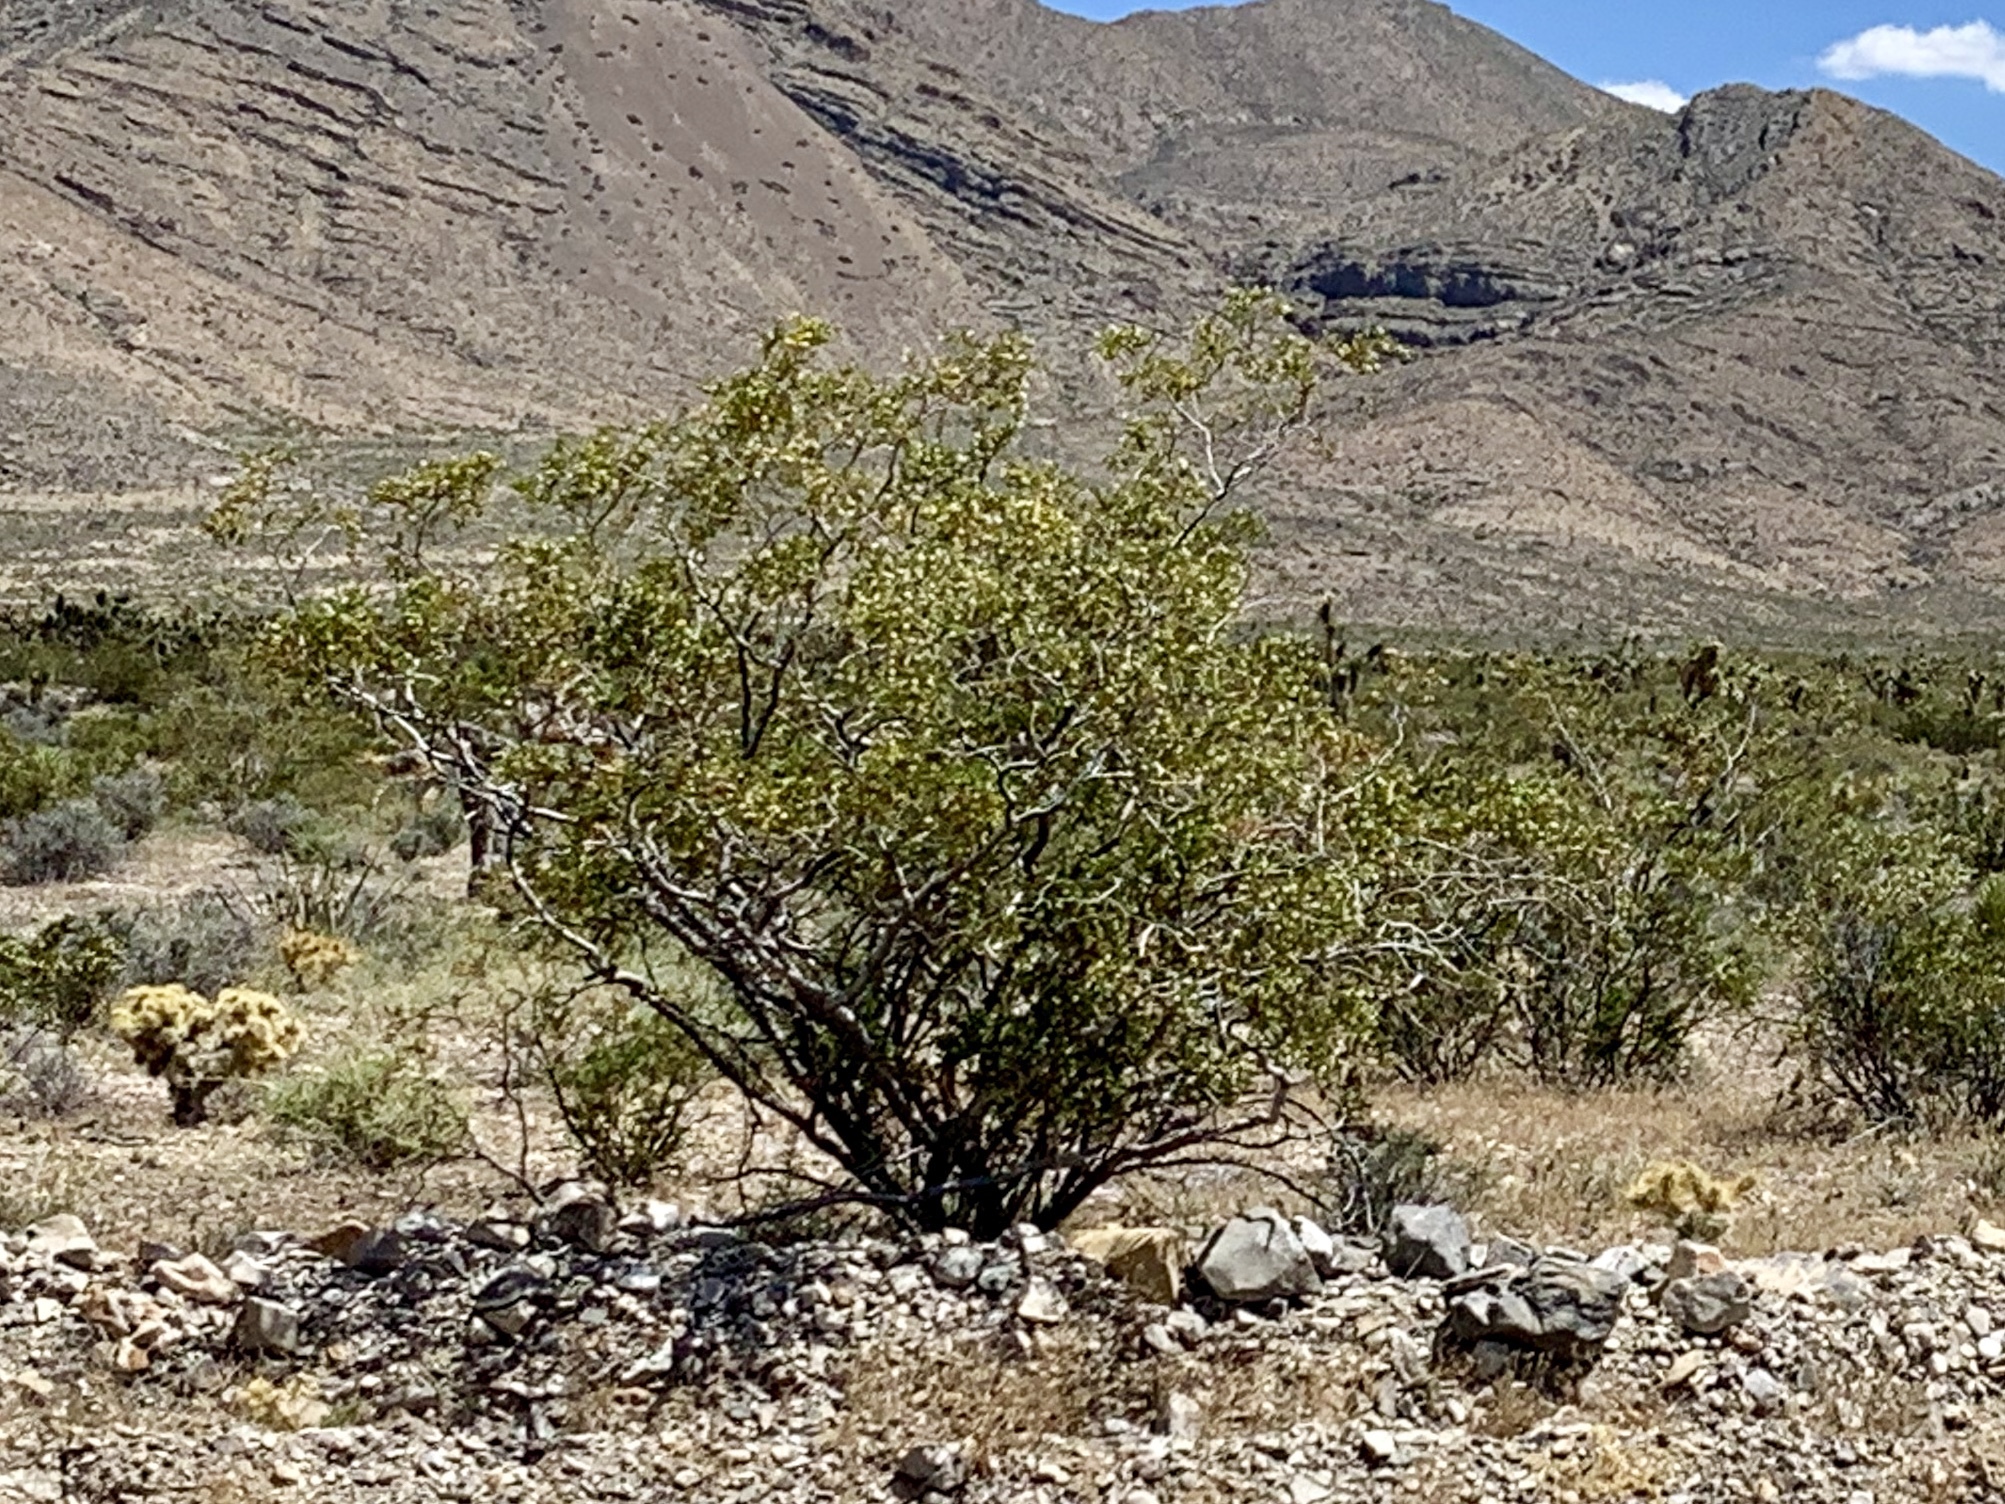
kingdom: Plantae
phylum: Tracheophyta
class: Magnoliopsida
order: Zygophyllales
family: Zygophyllaceae
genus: Larrea
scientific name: Larrea tridentata
